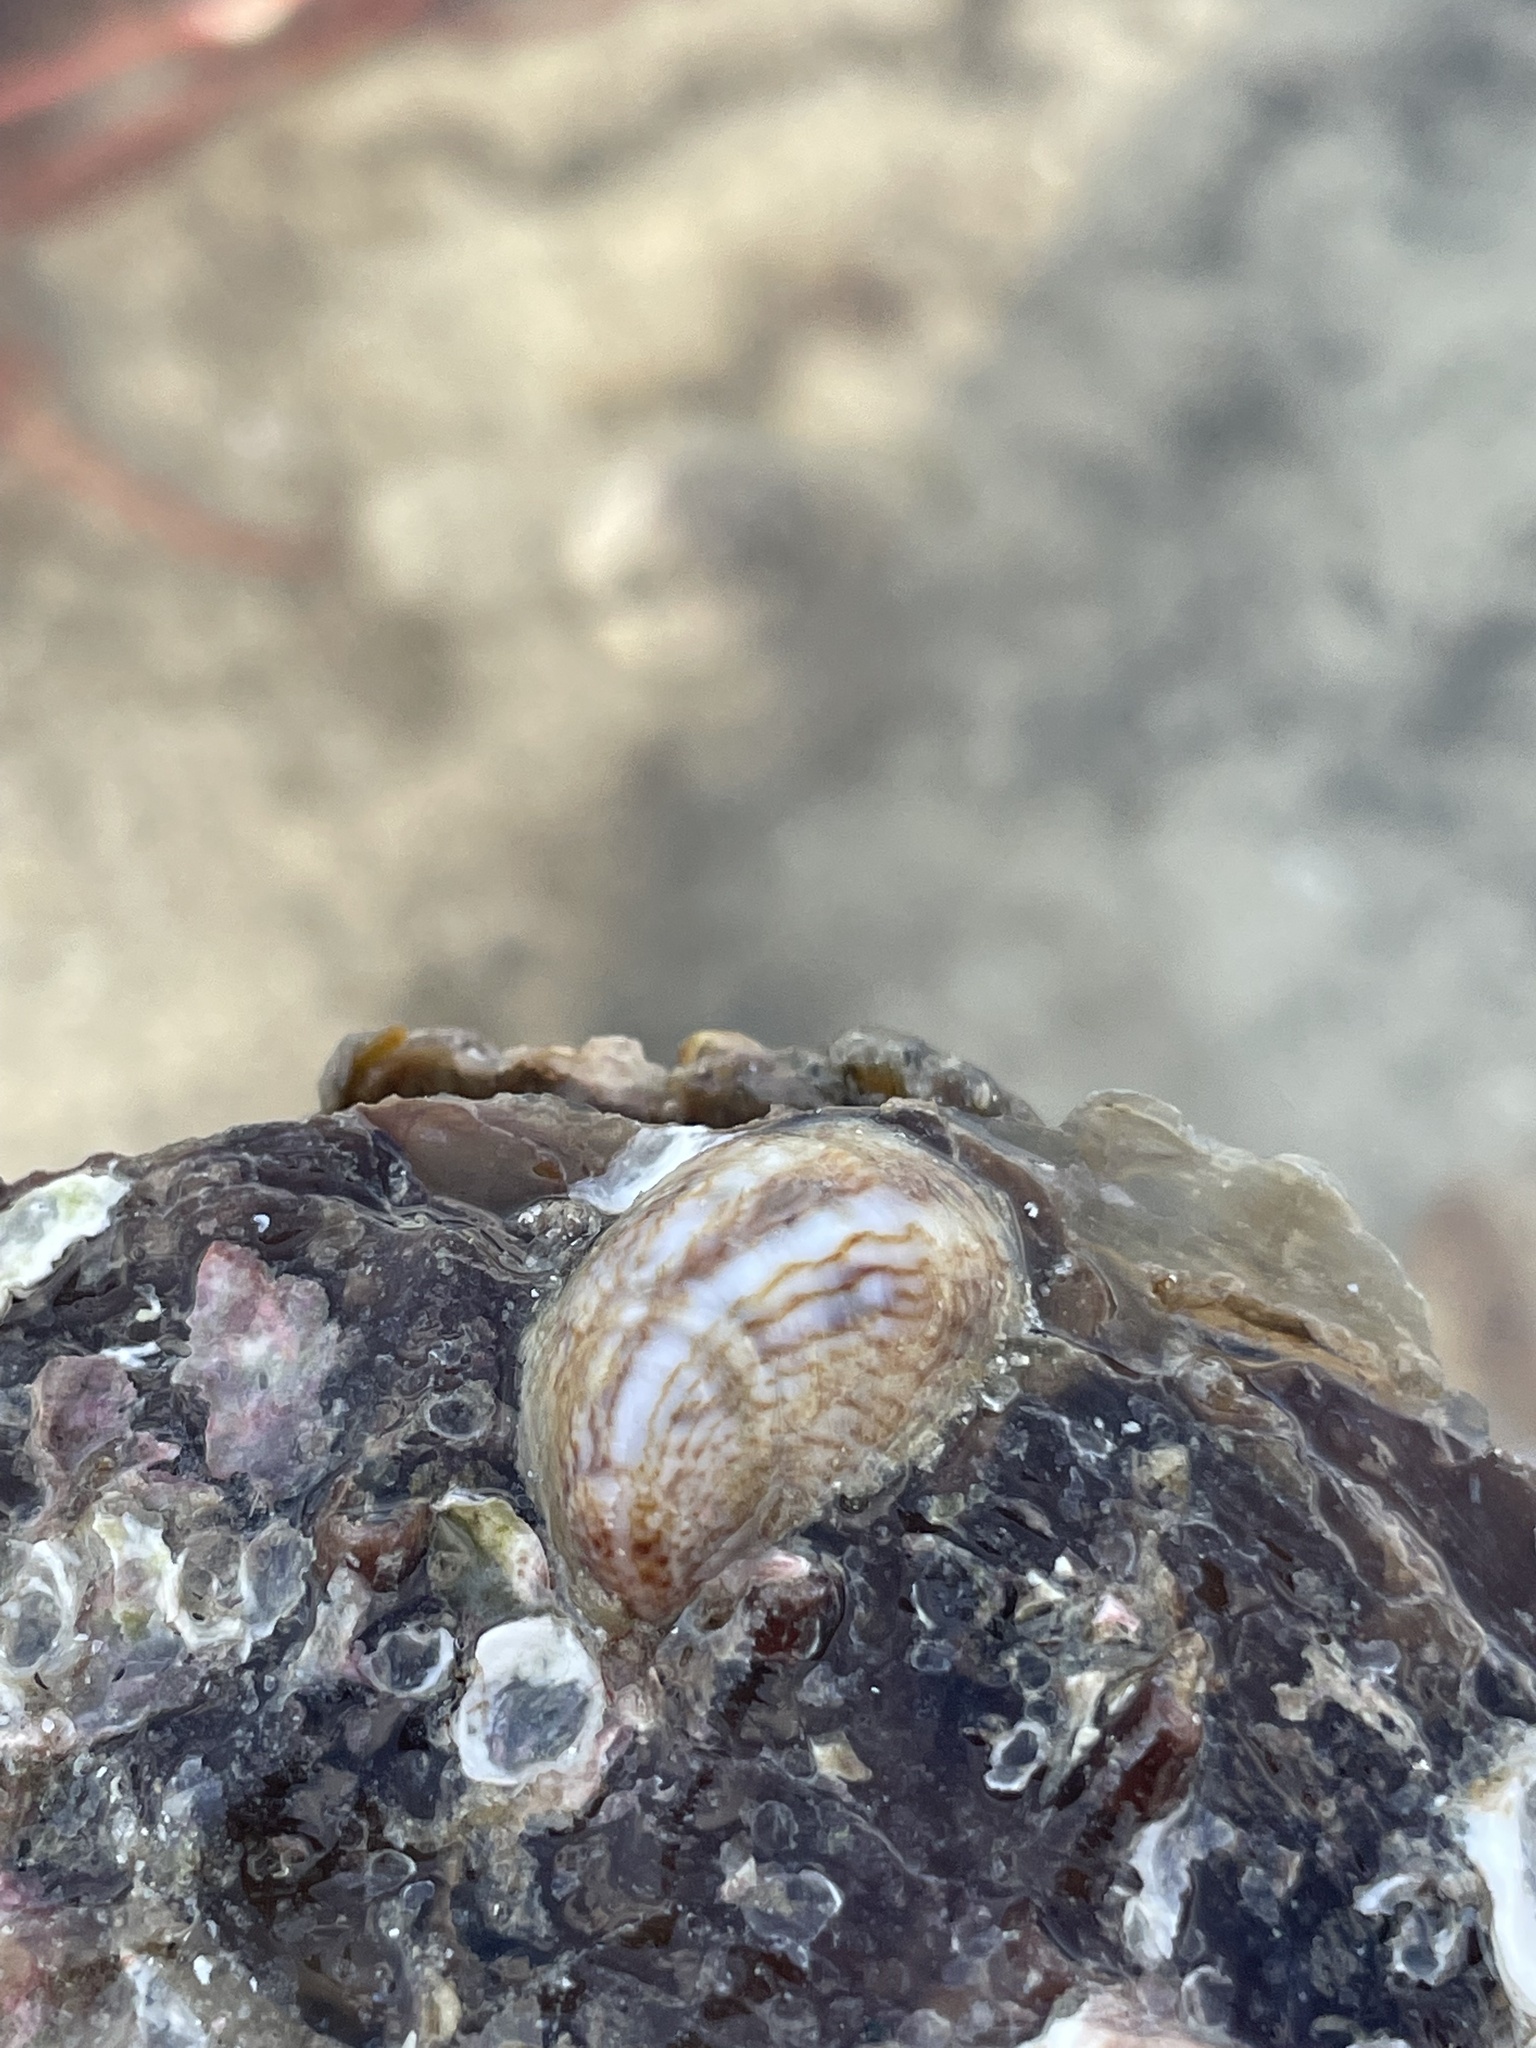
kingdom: Animalia
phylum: Mollusca
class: Gastropoda
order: Littorinimorpha
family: Calyptraeidae
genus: Crepidula
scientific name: Crepidula fornicata
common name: Slipper limpet
